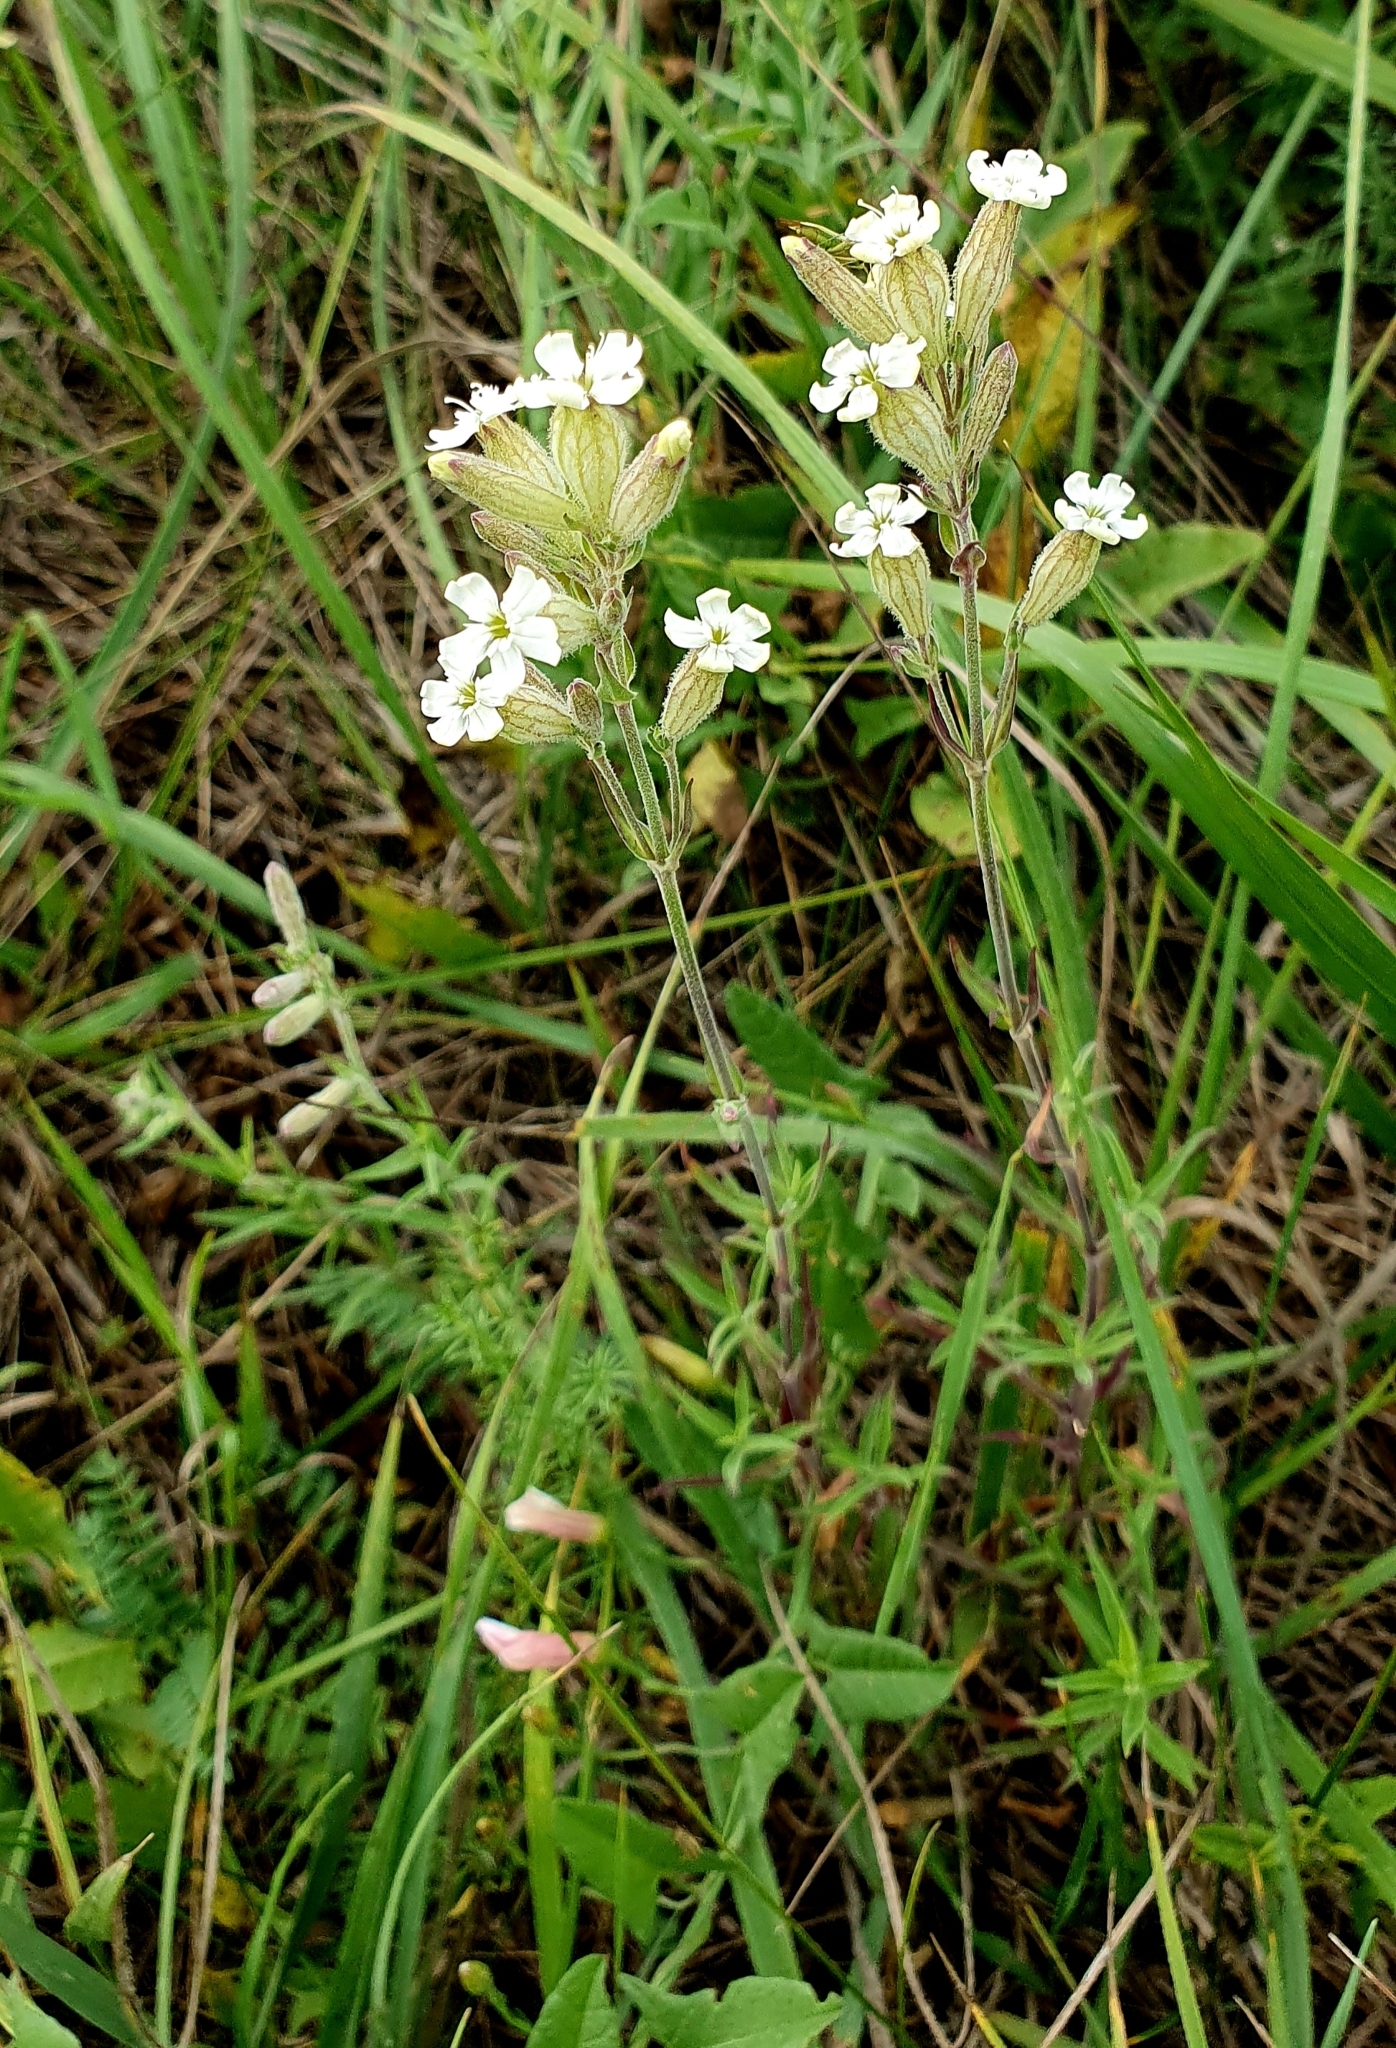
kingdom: Plantae
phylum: Tracheophyta
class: Magnoliopsida
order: Caryophyllales
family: Caryophyllaceae
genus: Silene
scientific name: Silene amoena
